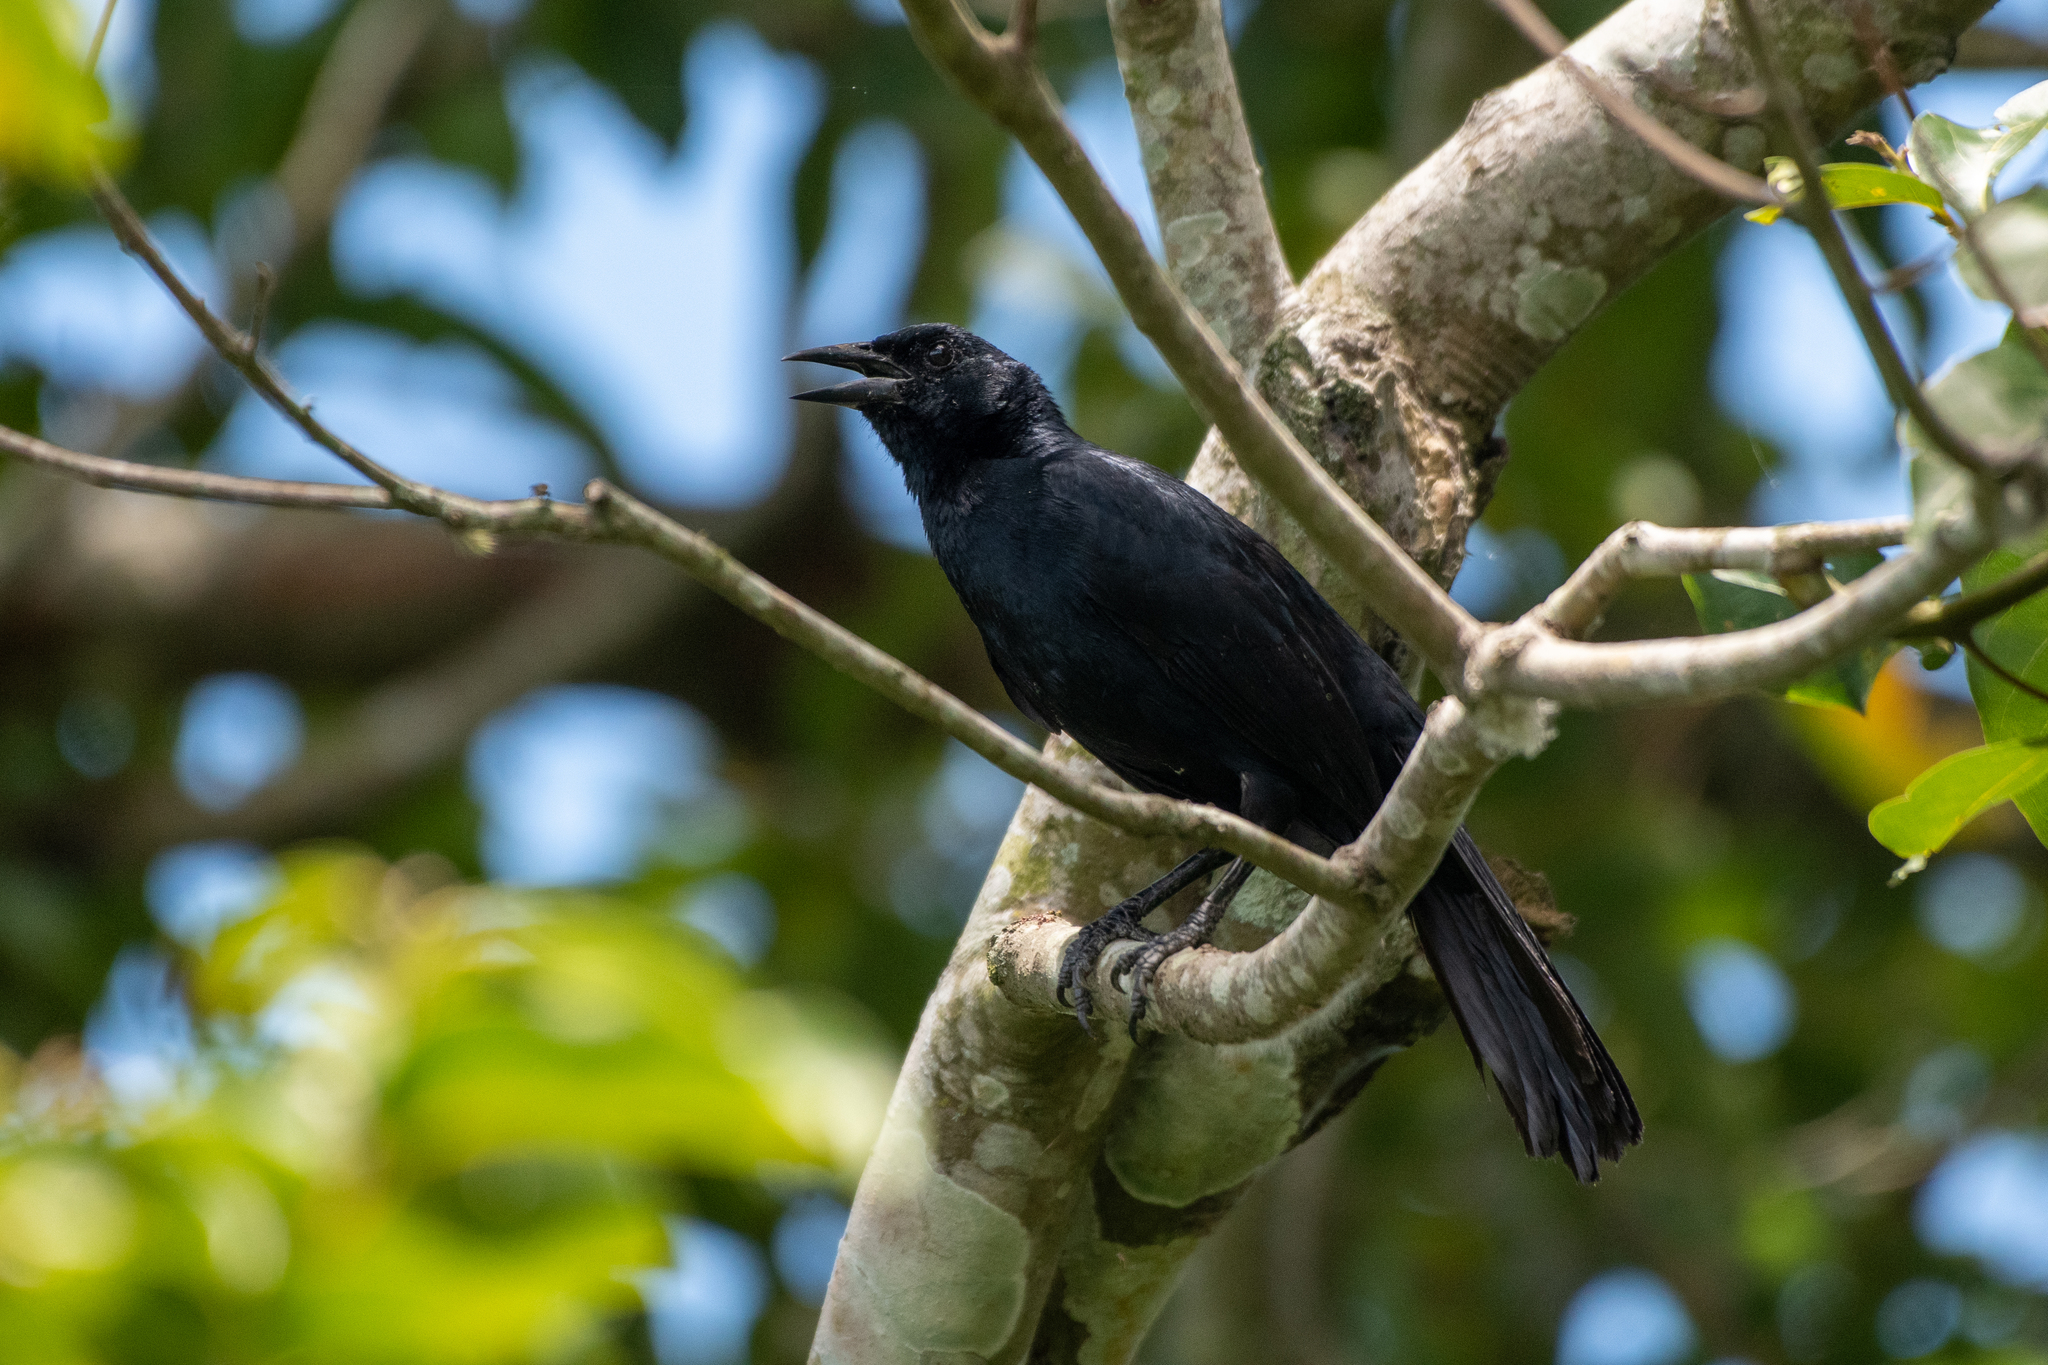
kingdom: Animalia
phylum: Chordata
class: Aves
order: Passeriformes
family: Icteridae
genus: Dives
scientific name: Dives dives
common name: Melodious blackbird
